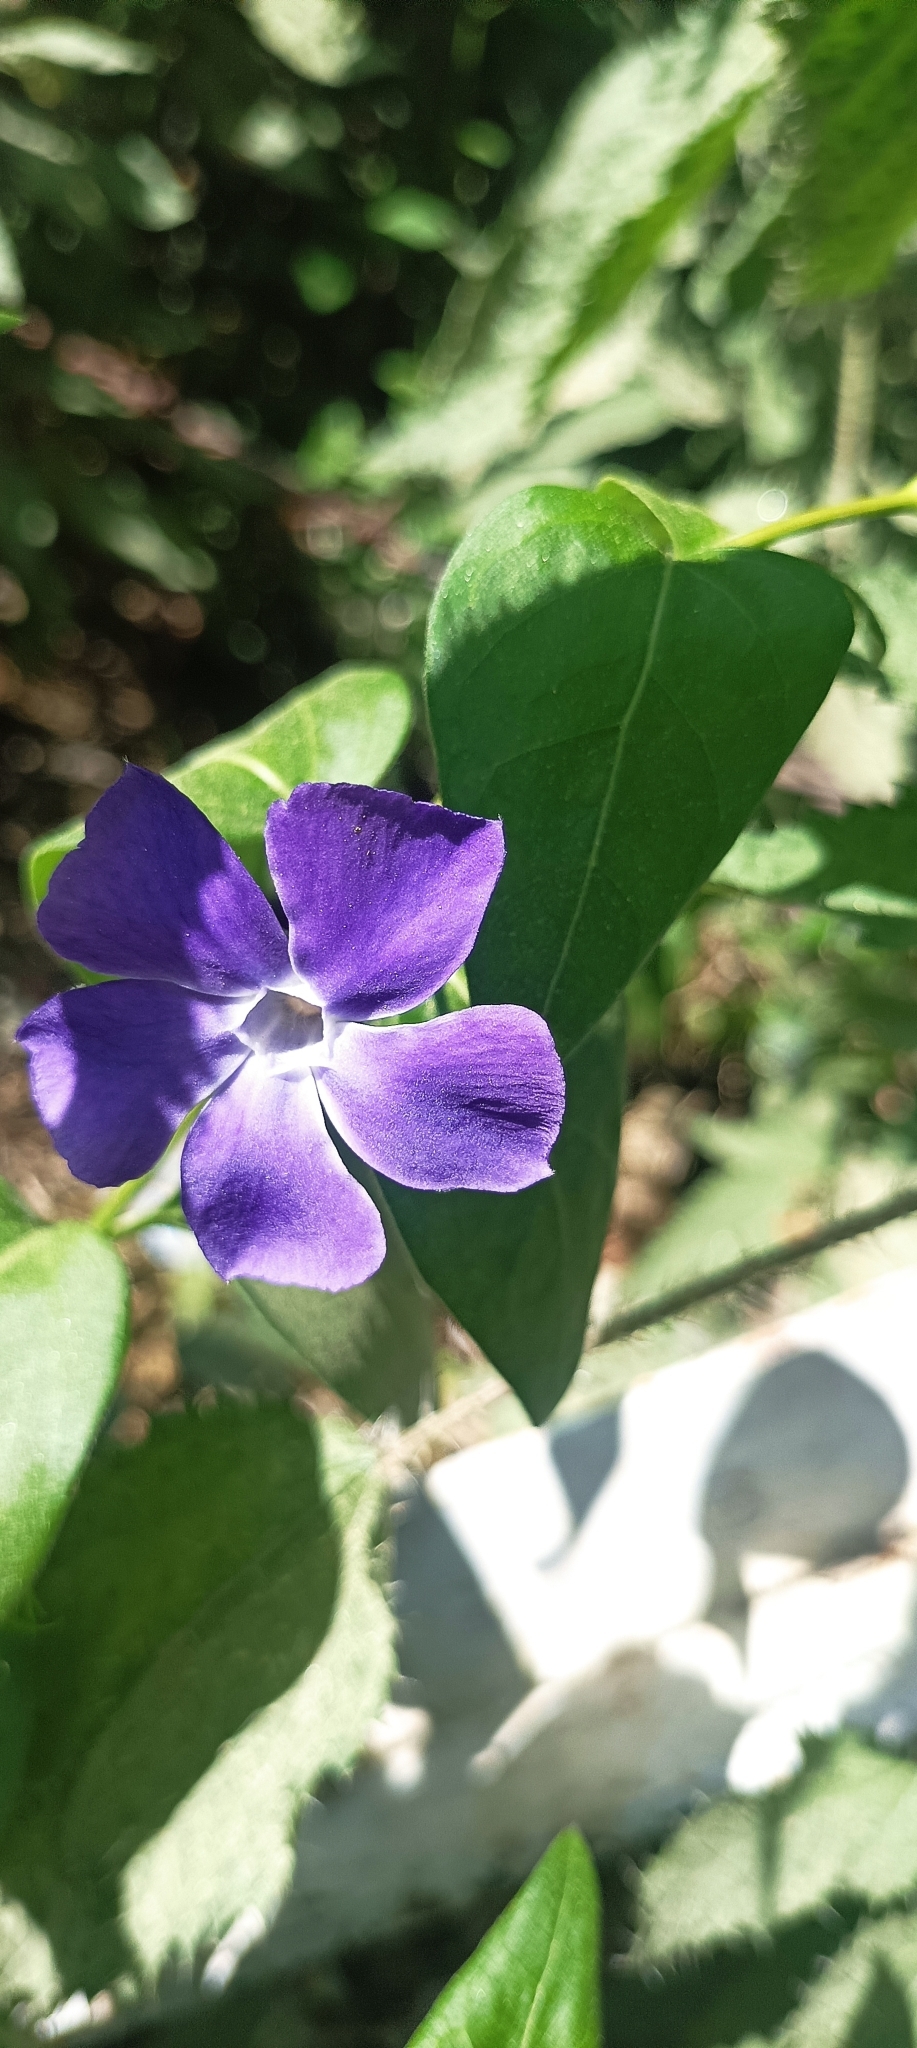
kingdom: Plantae
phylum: Tracheophyta
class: Magnoliopsida
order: Gentianales
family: Apocynaceae
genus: Vinca
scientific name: Vinca major
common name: Greater periwinkle
